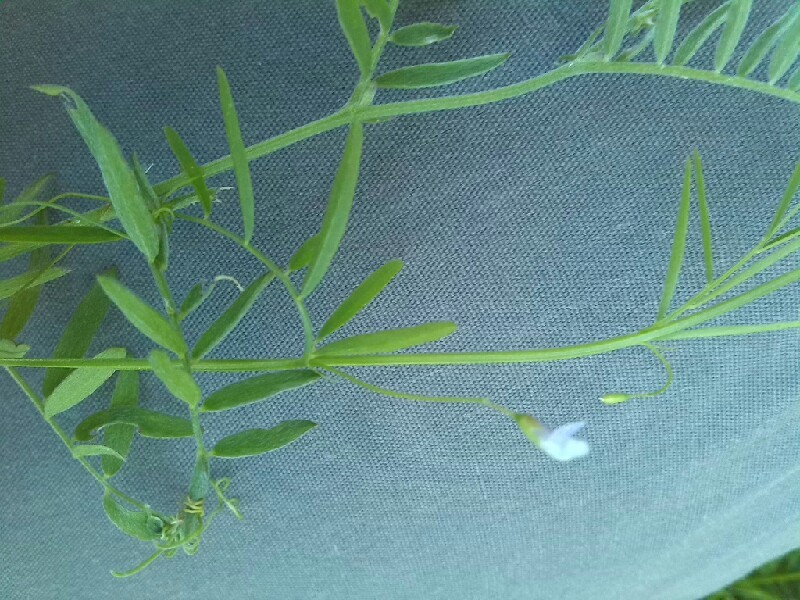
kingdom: Plantae
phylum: Tracheophyta
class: Magnoliopsida
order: Fabales
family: Fabaceae
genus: Vicia
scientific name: Vicia tetrasperma
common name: Smooth tare
